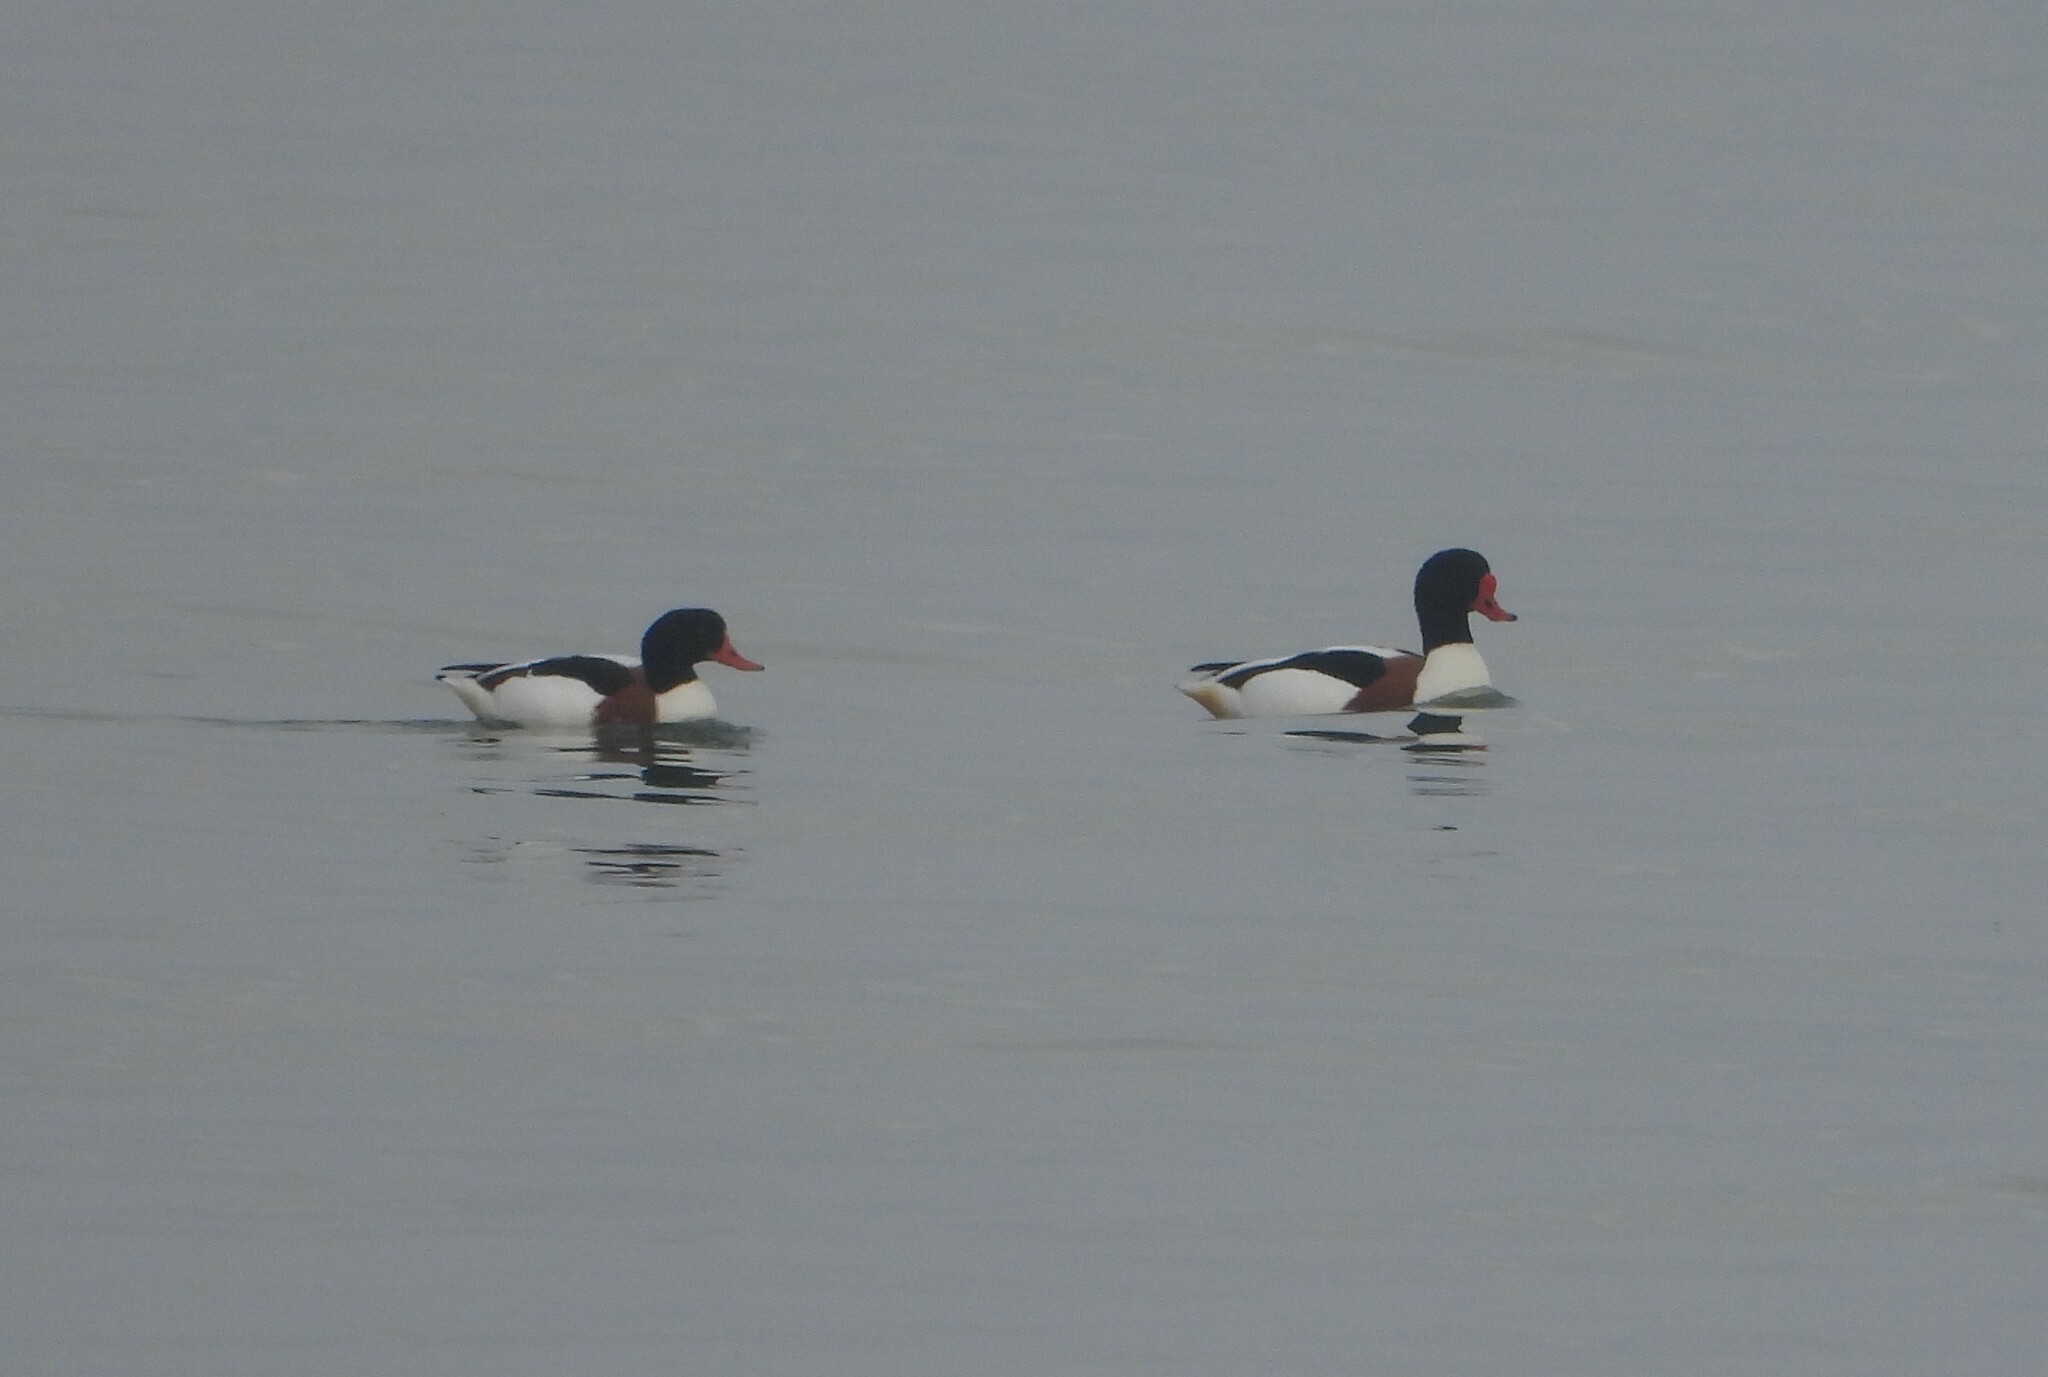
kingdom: Animalia
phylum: Chordata
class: Aves
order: Anseriformes
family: Anatidae
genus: Tadorna
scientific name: Tadorna tadorna
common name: Common shelduck
